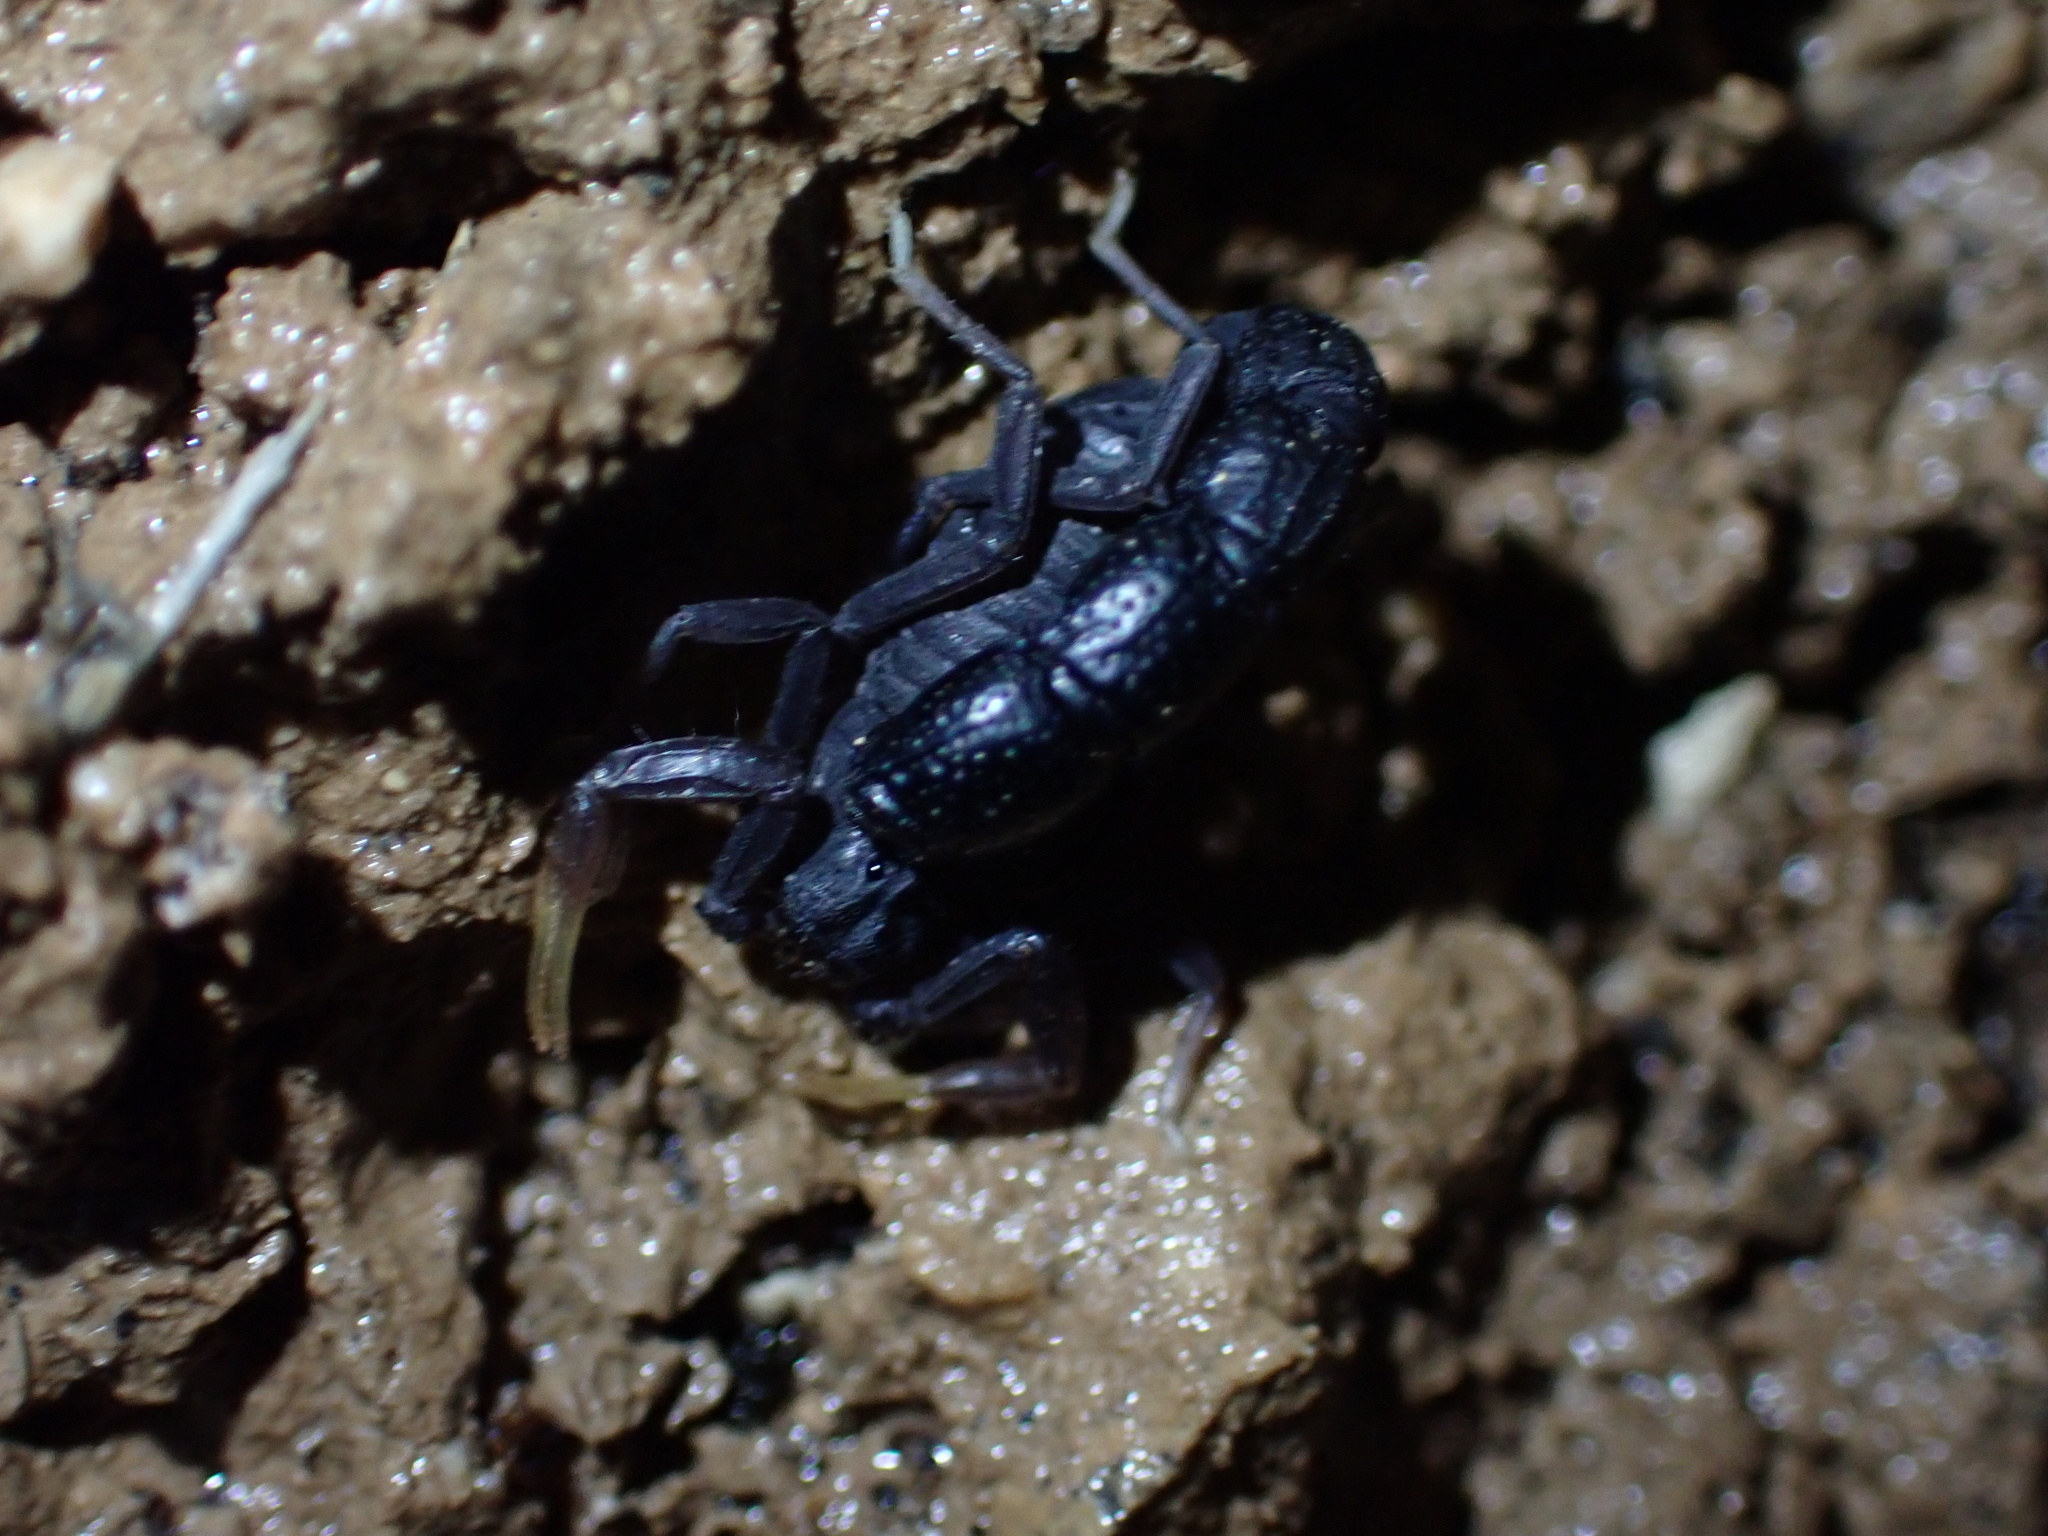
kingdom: Animalia
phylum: Arthropoda
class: Arachnida
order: Scorpiones
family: Buthidae
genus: Orthochirus
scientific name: Orthochirus farzanpayi
